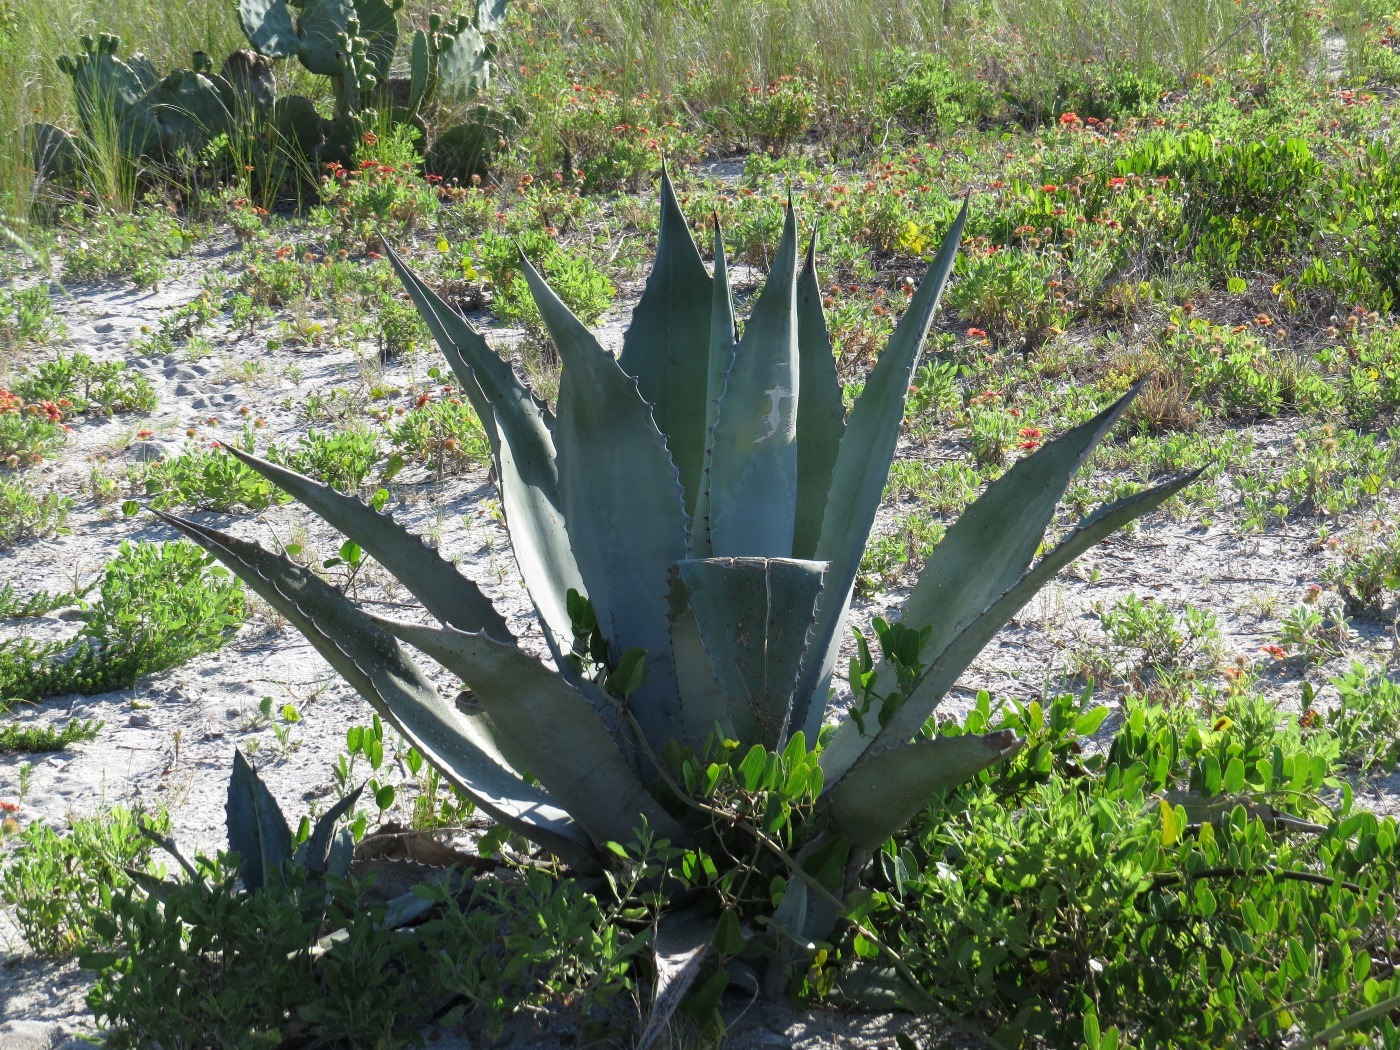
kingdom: Plantae
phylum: Tracheophyta
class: Liliopsida
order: Asparagales
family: Asparagaceae
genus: Agave
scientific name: Agave americana
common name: Centuryplant
